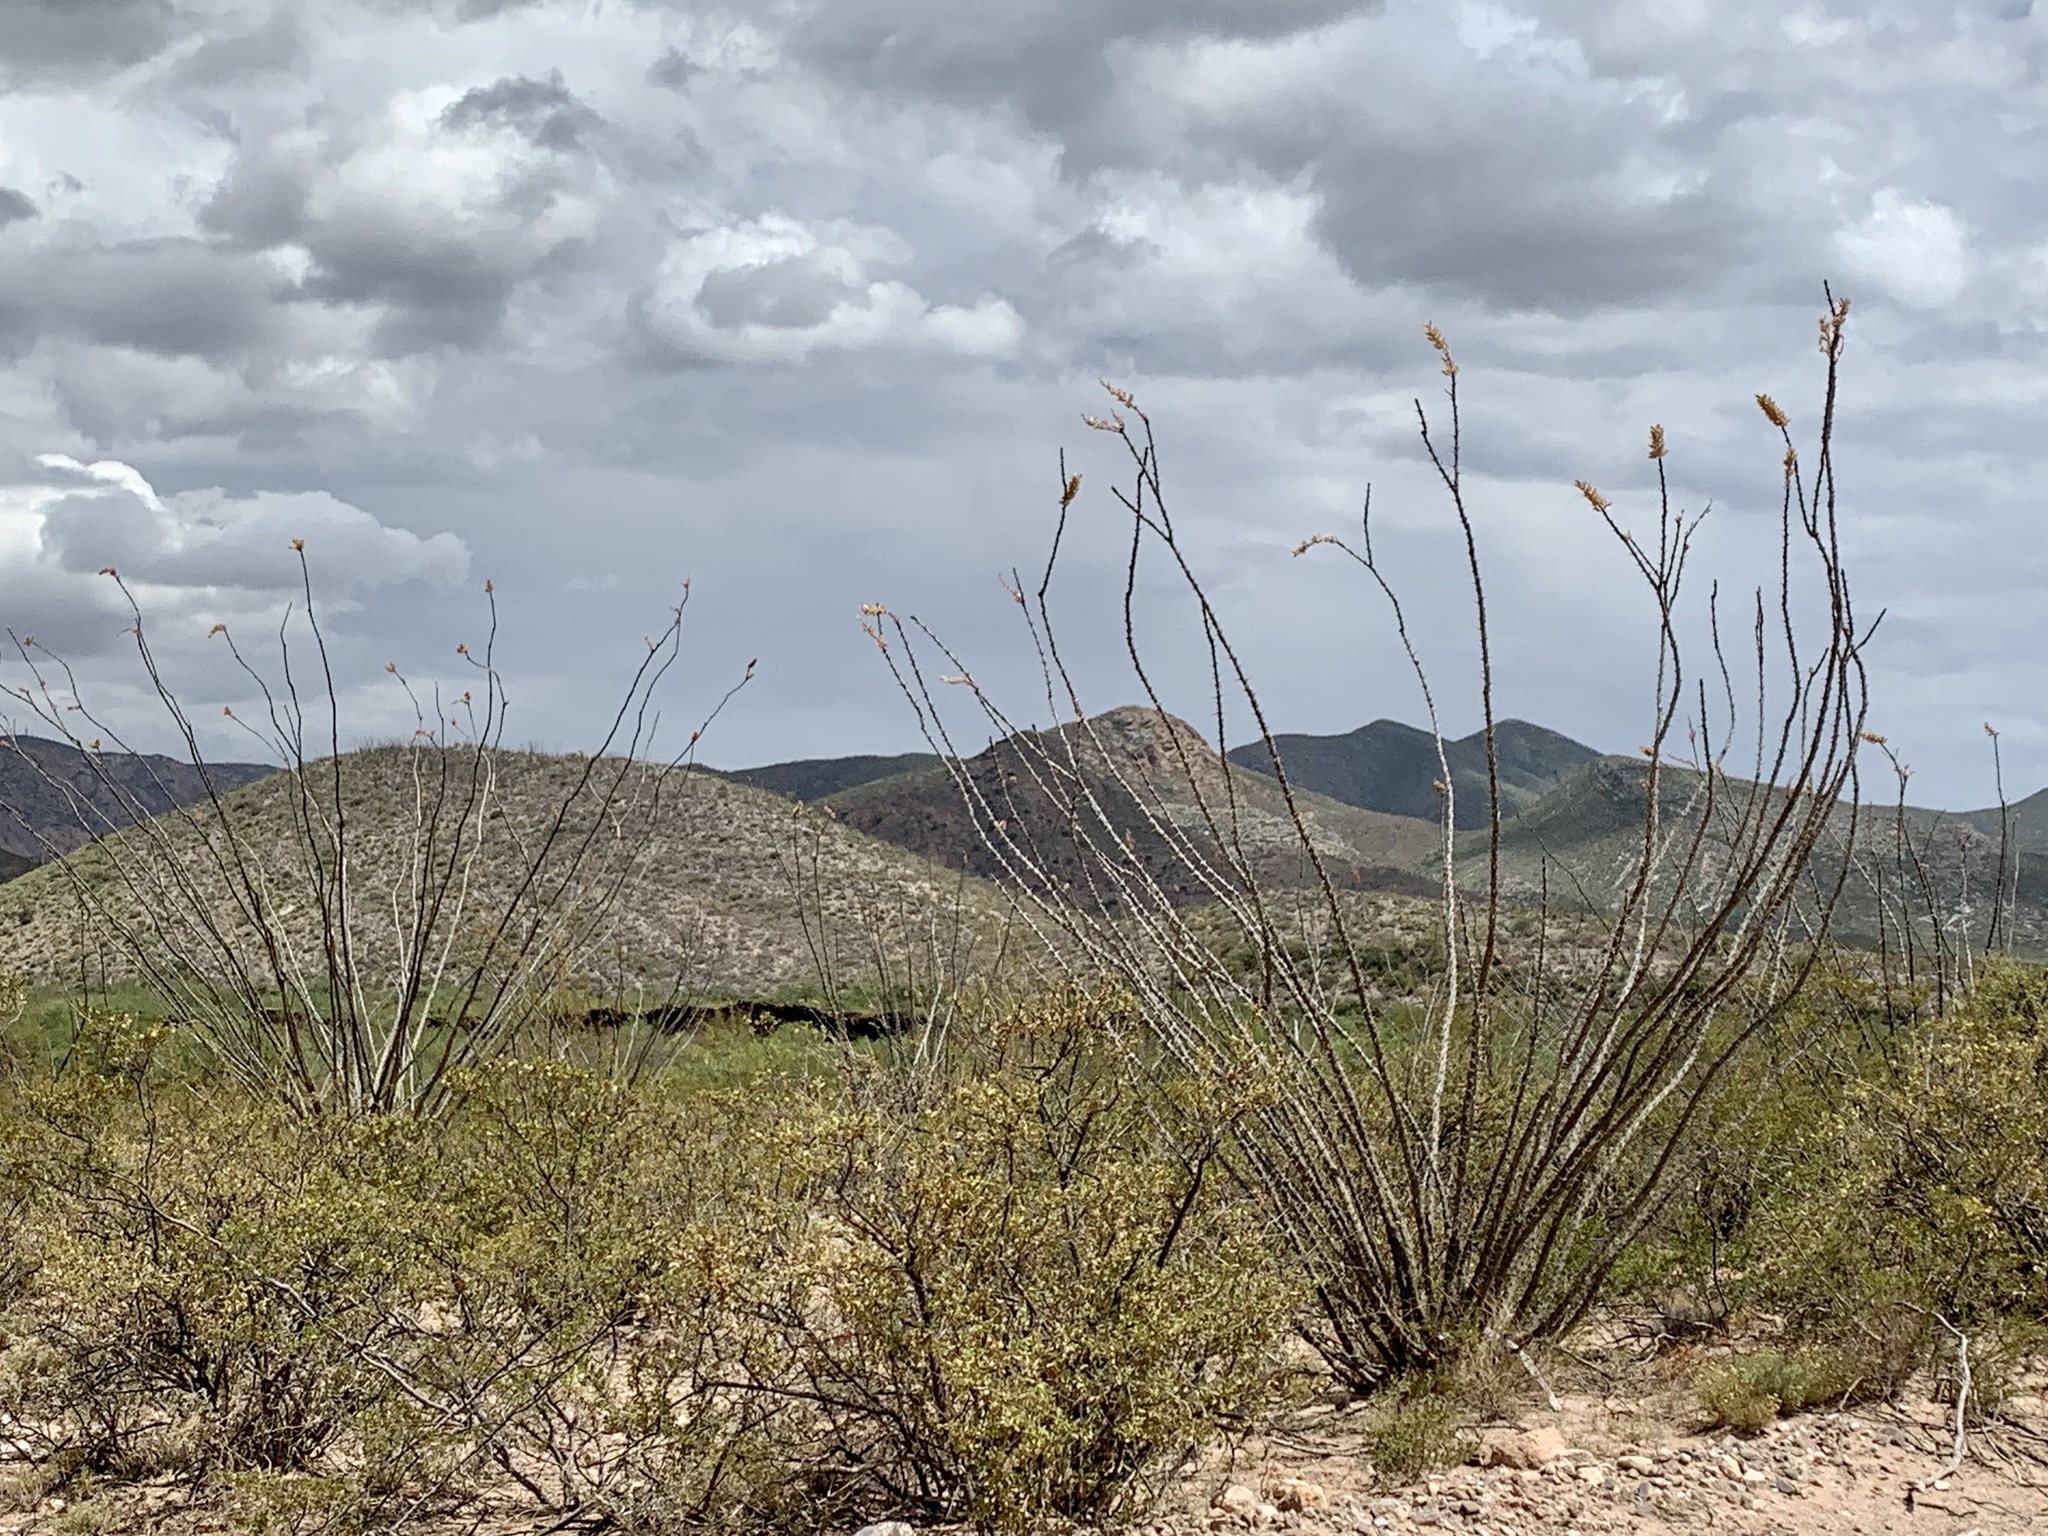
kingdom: Plantae
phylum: Tracheophyta
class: Magnoliopsida
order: Ericales
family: Fouquieriaceae
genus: Fouquieria
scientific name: Fouquieria splendens
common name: Vine-cactus
